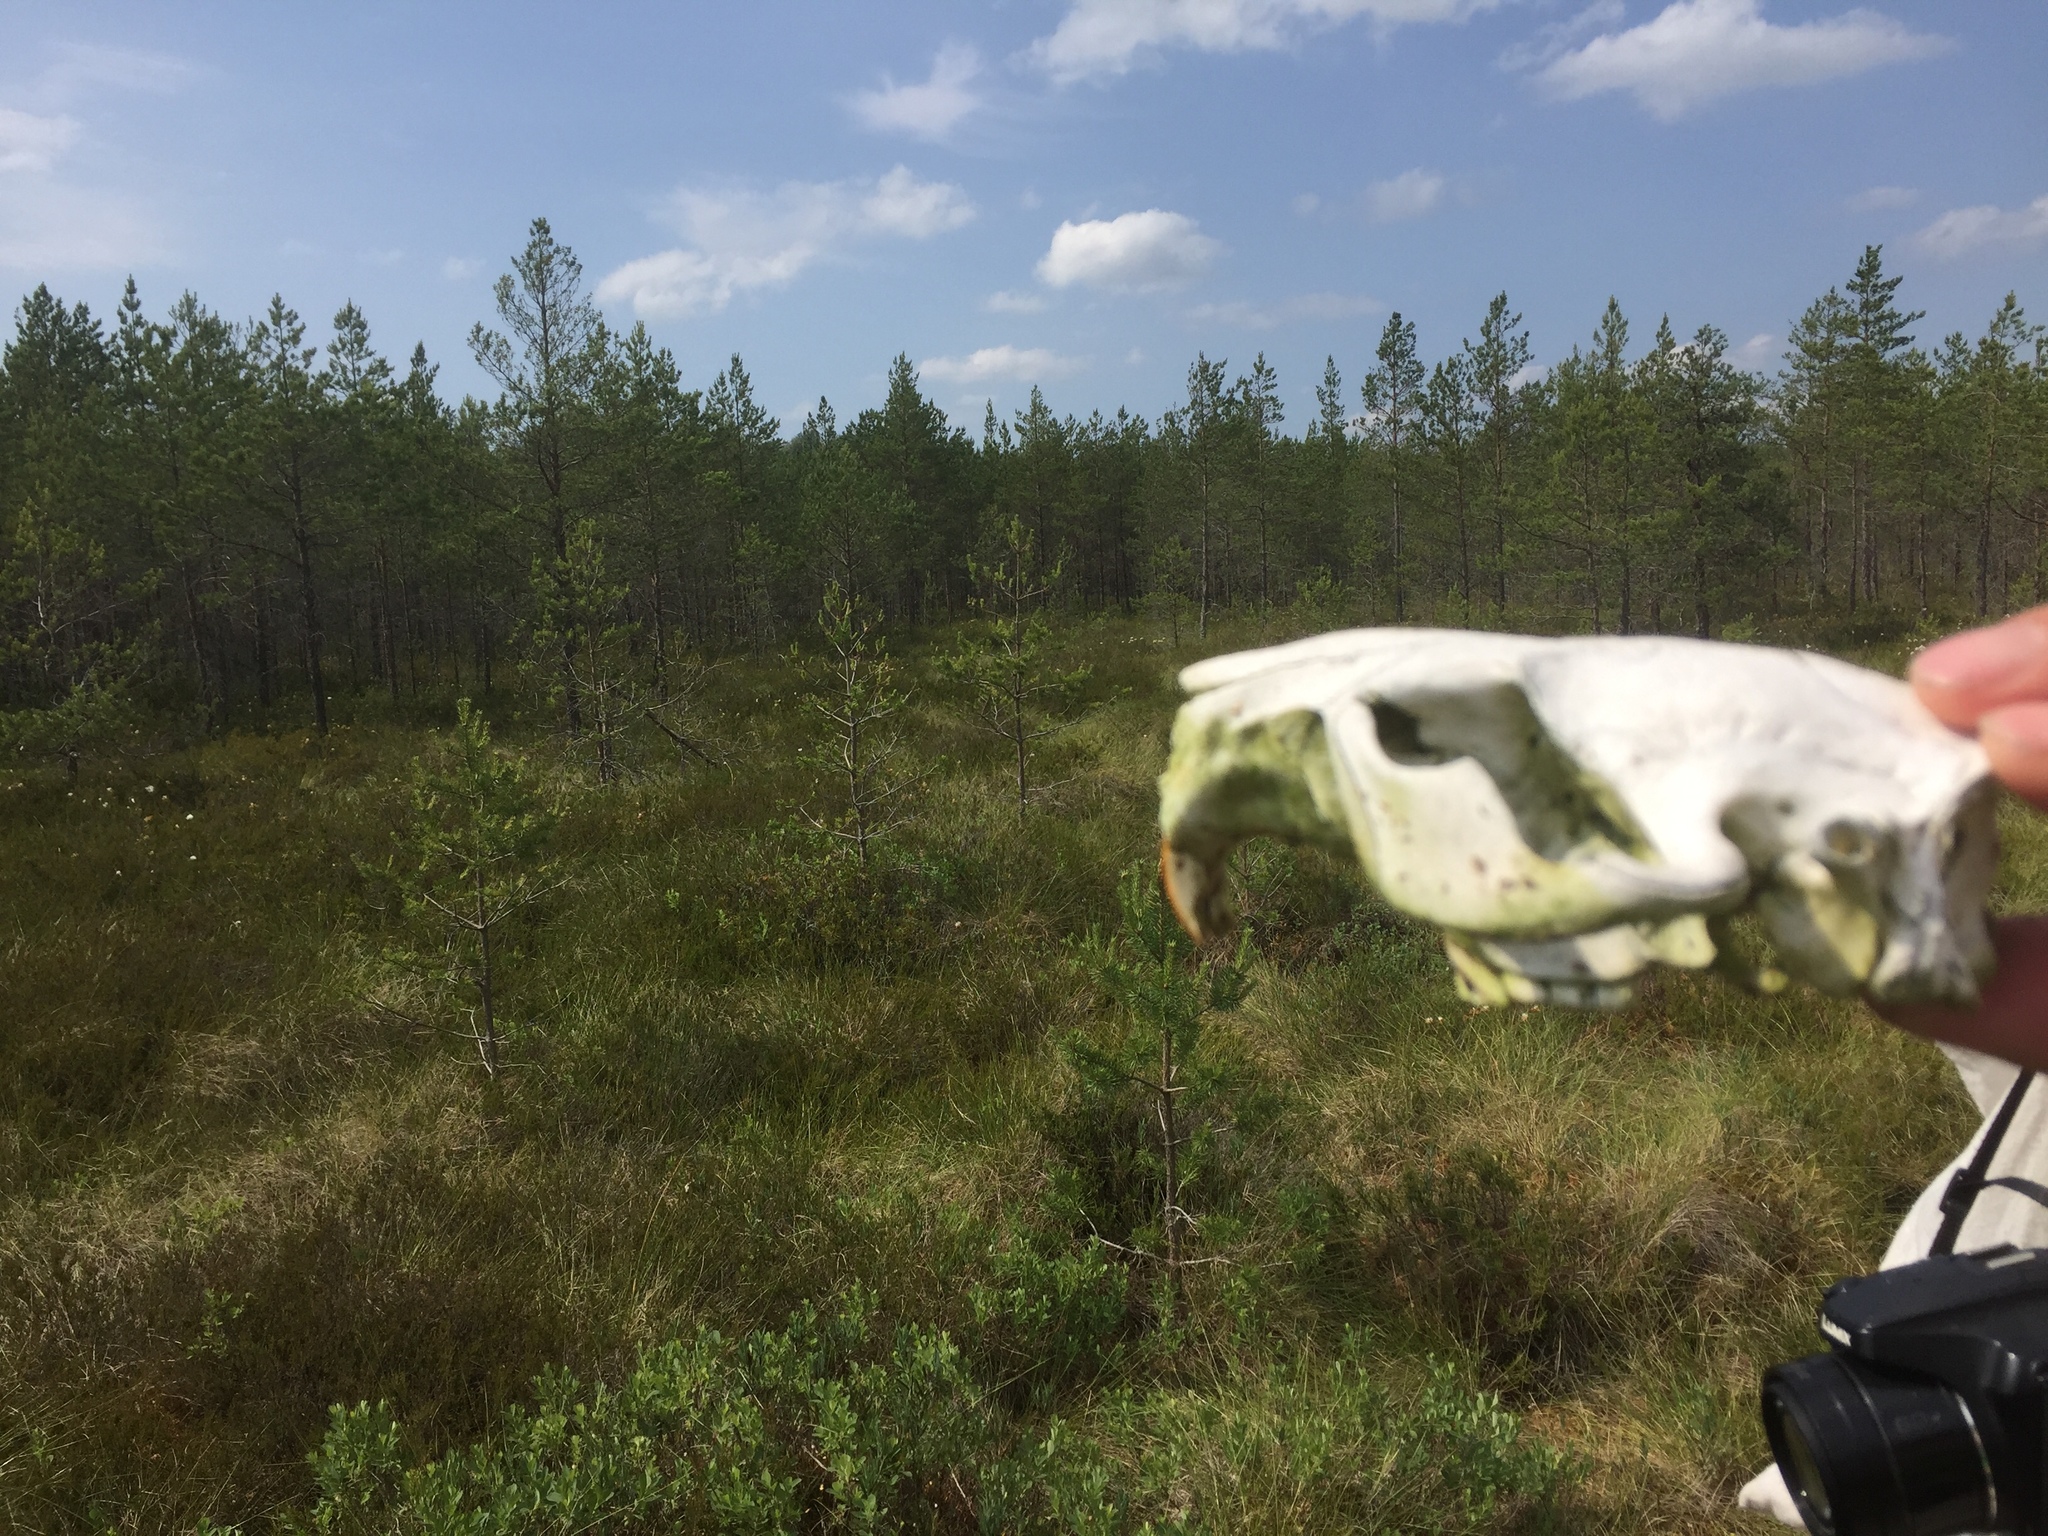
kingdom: Animalia
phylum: Chordata
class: Mammalia
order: Rodentia
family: Castoridae
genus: Castor
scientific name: Castor fiber
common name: Eurasian beaver
